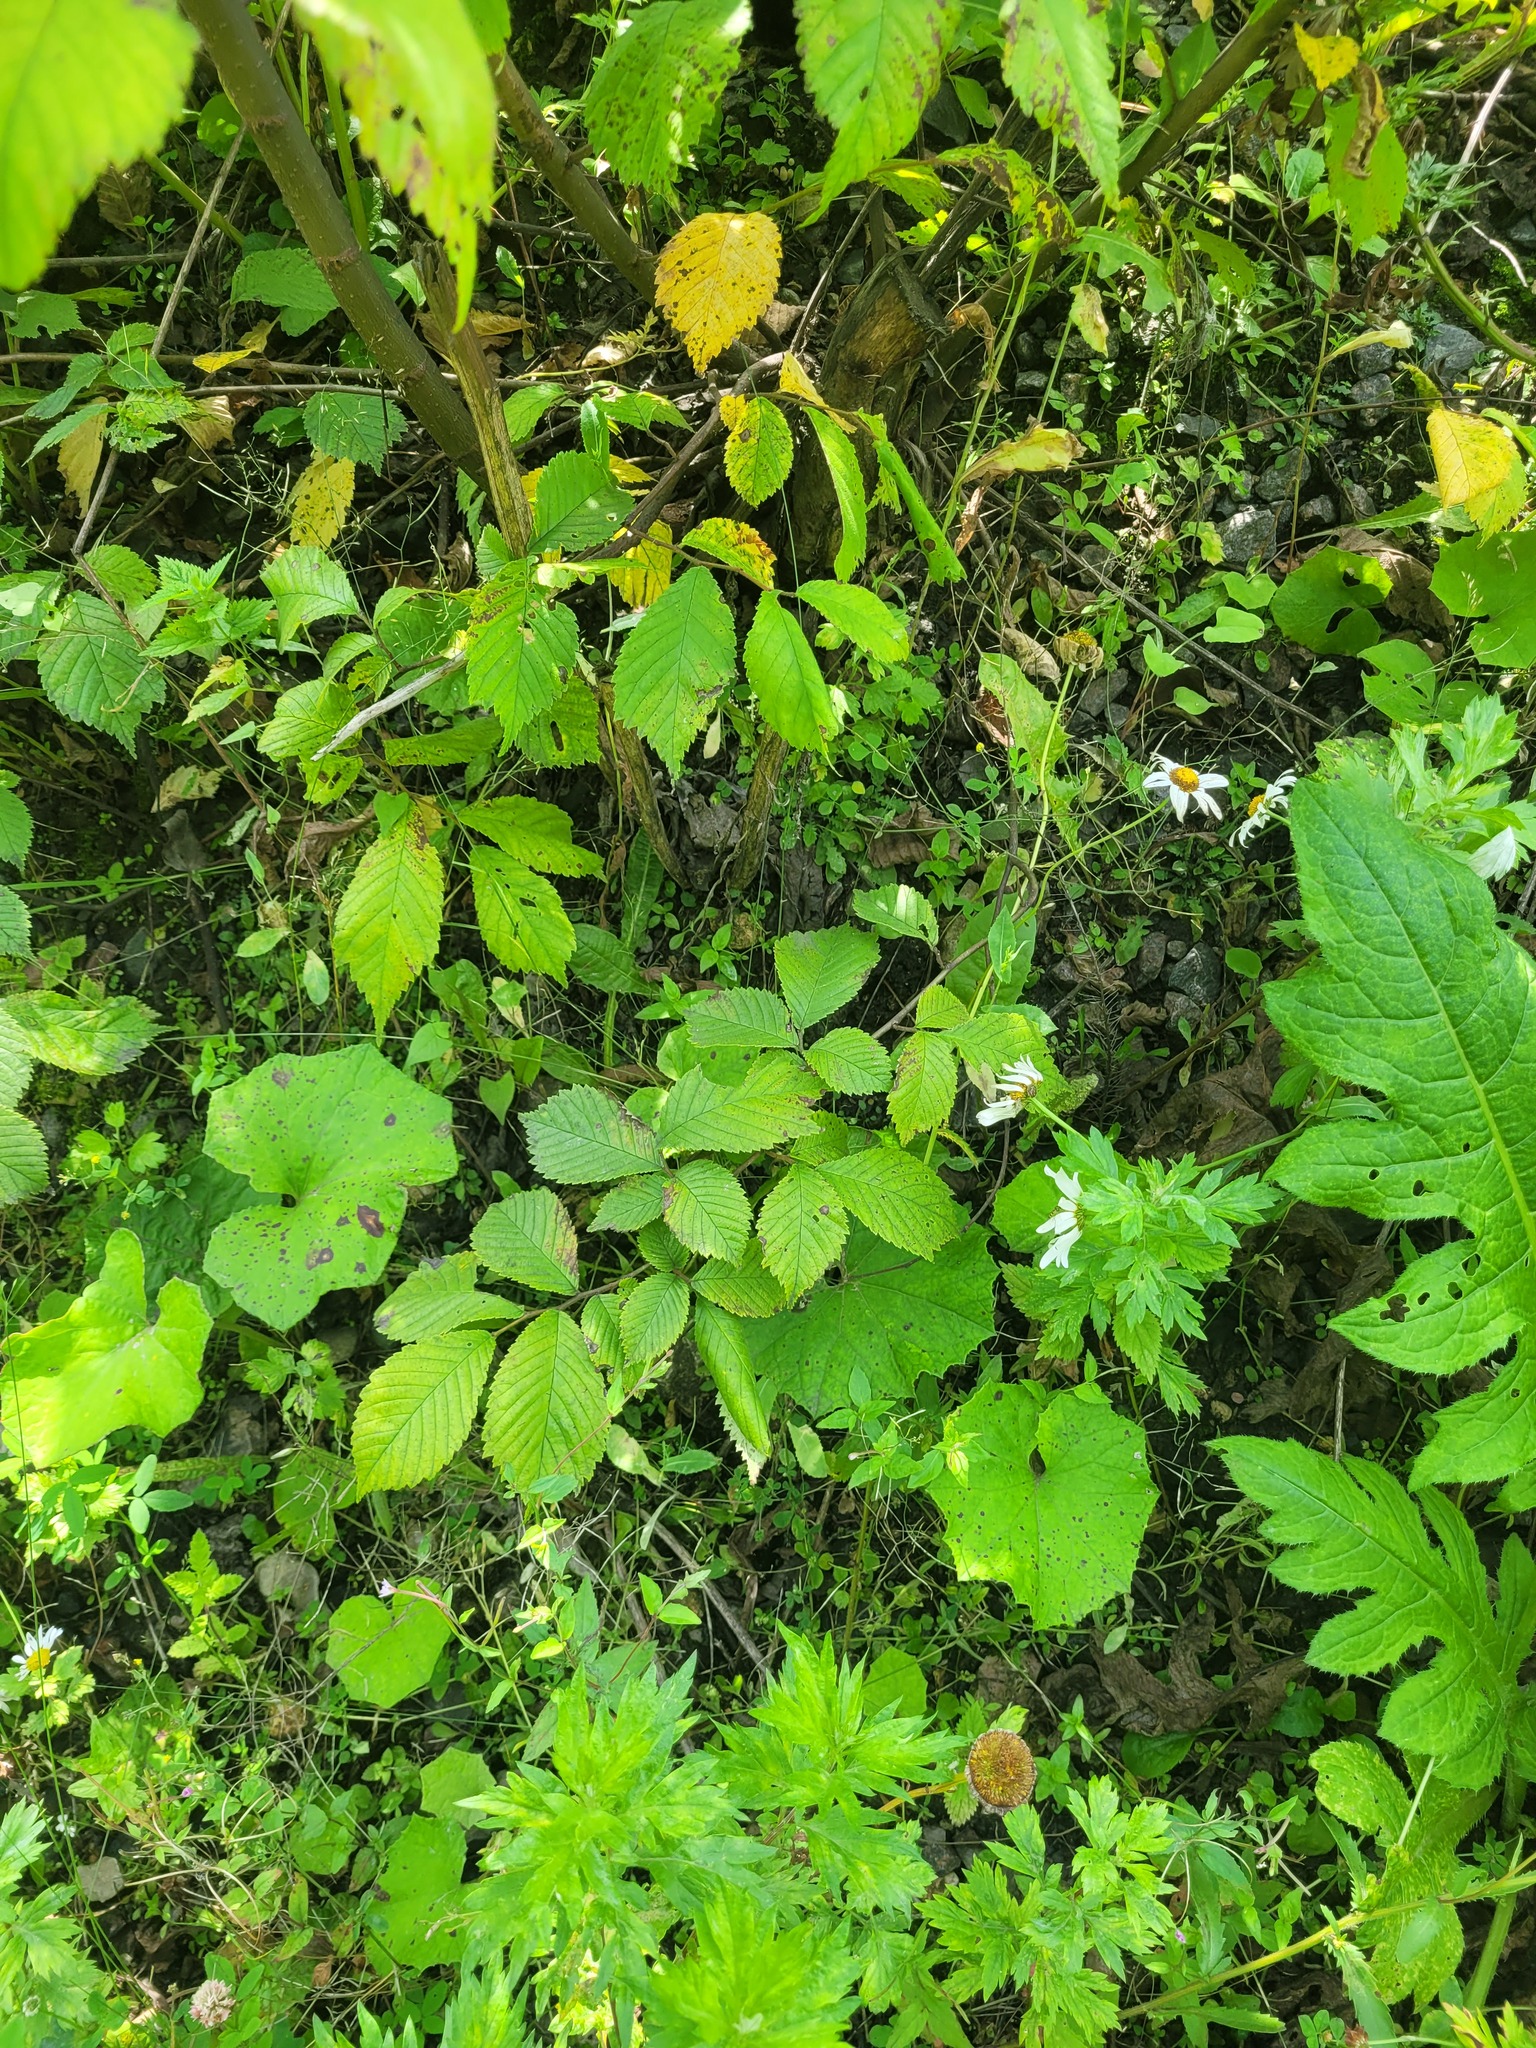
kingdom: Plantae
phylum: Tracheophyta
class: Magnoliopsida
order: Rosales
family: Ulmaceae
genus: Ulmus
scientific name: Ulmus glabra
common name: Wych elm
